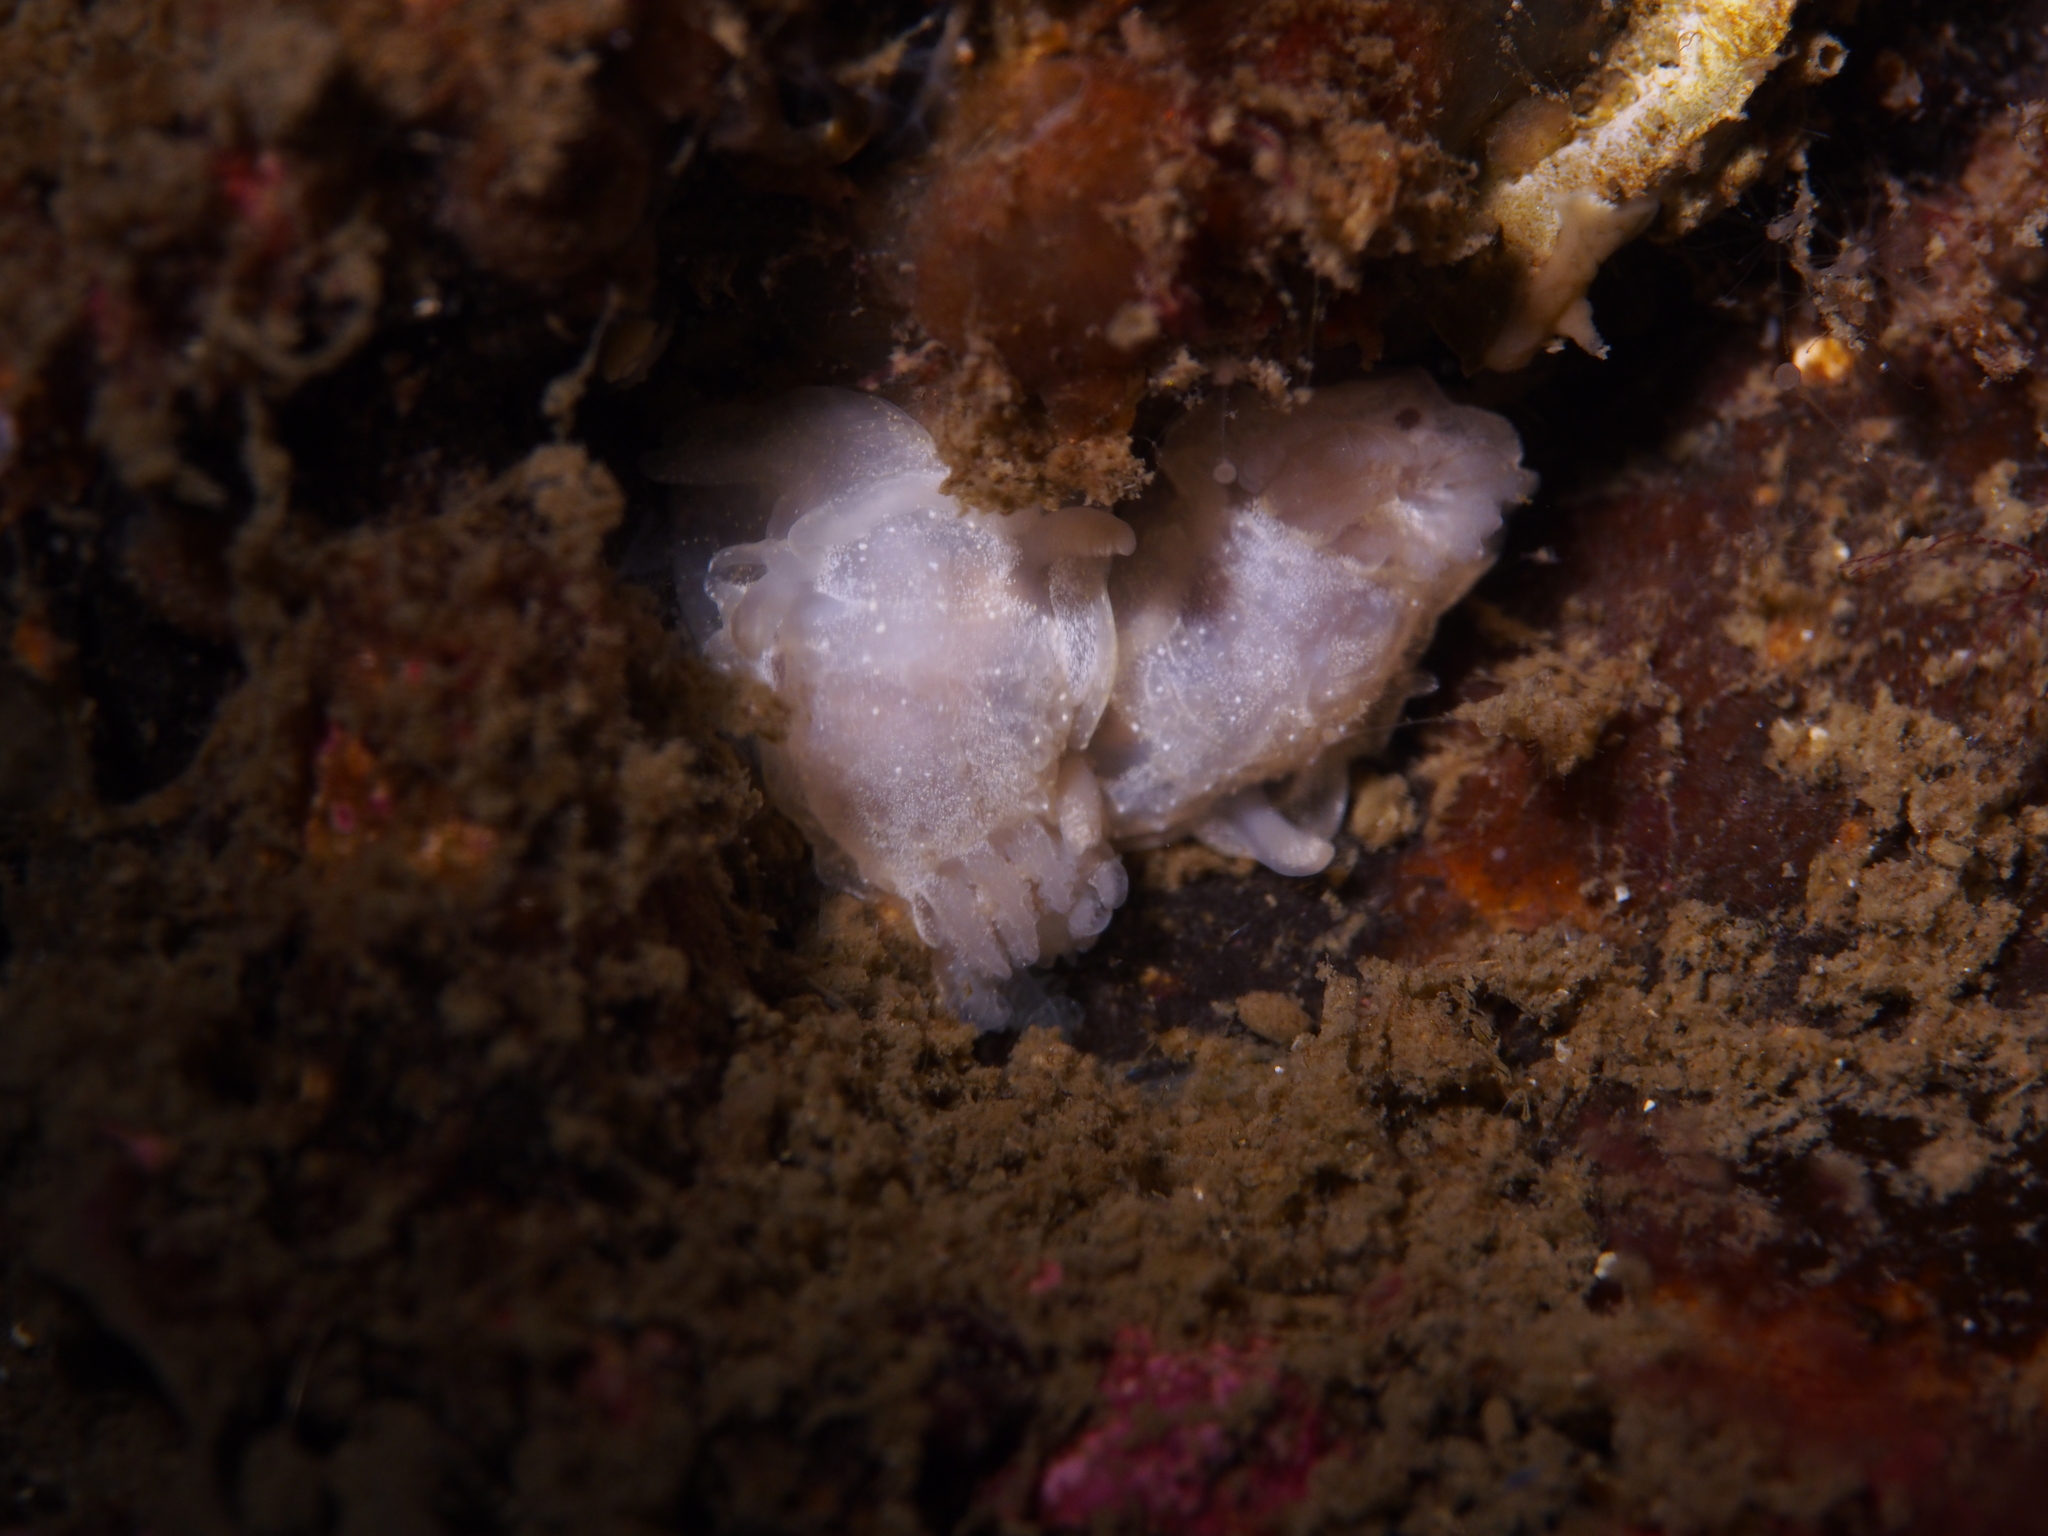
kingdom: Animalia
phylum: Mollusca
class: Gastropoda
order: Nudibranchia
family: Goniodorididae
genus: Okenia
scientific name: Okenia
